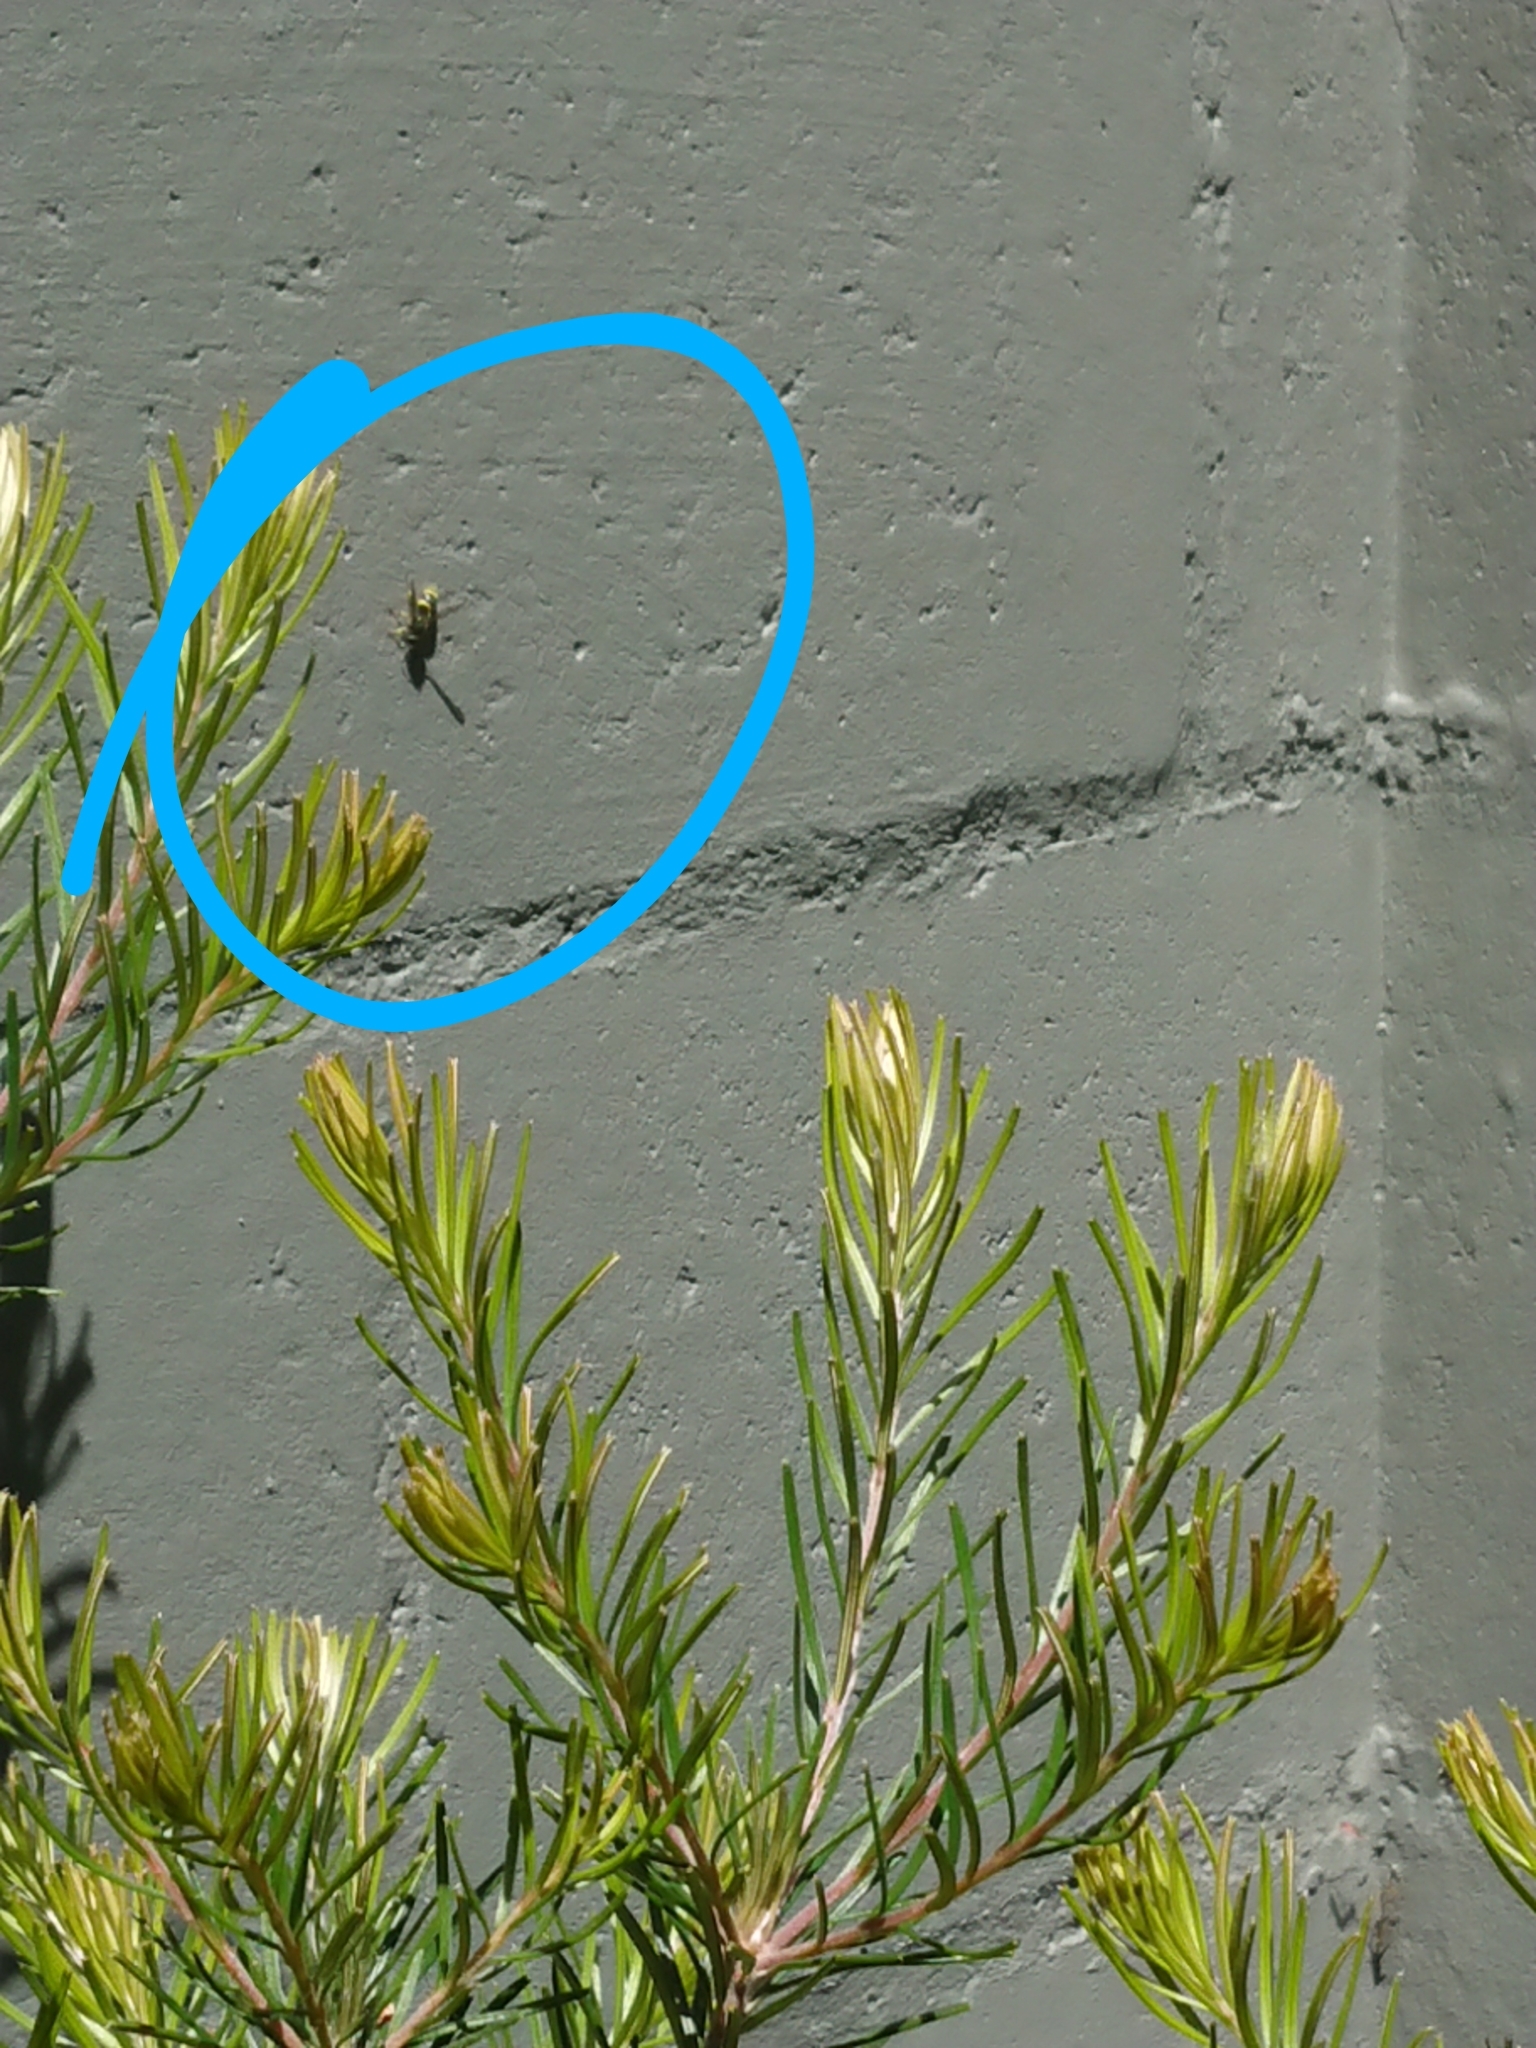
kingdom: Animalia
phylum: Arthropoda
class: Insecta
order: Hymenoptera
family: Vespidae
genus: Ancistrocerus
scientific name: Ancistrocerus gazella
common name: European tube wasp
